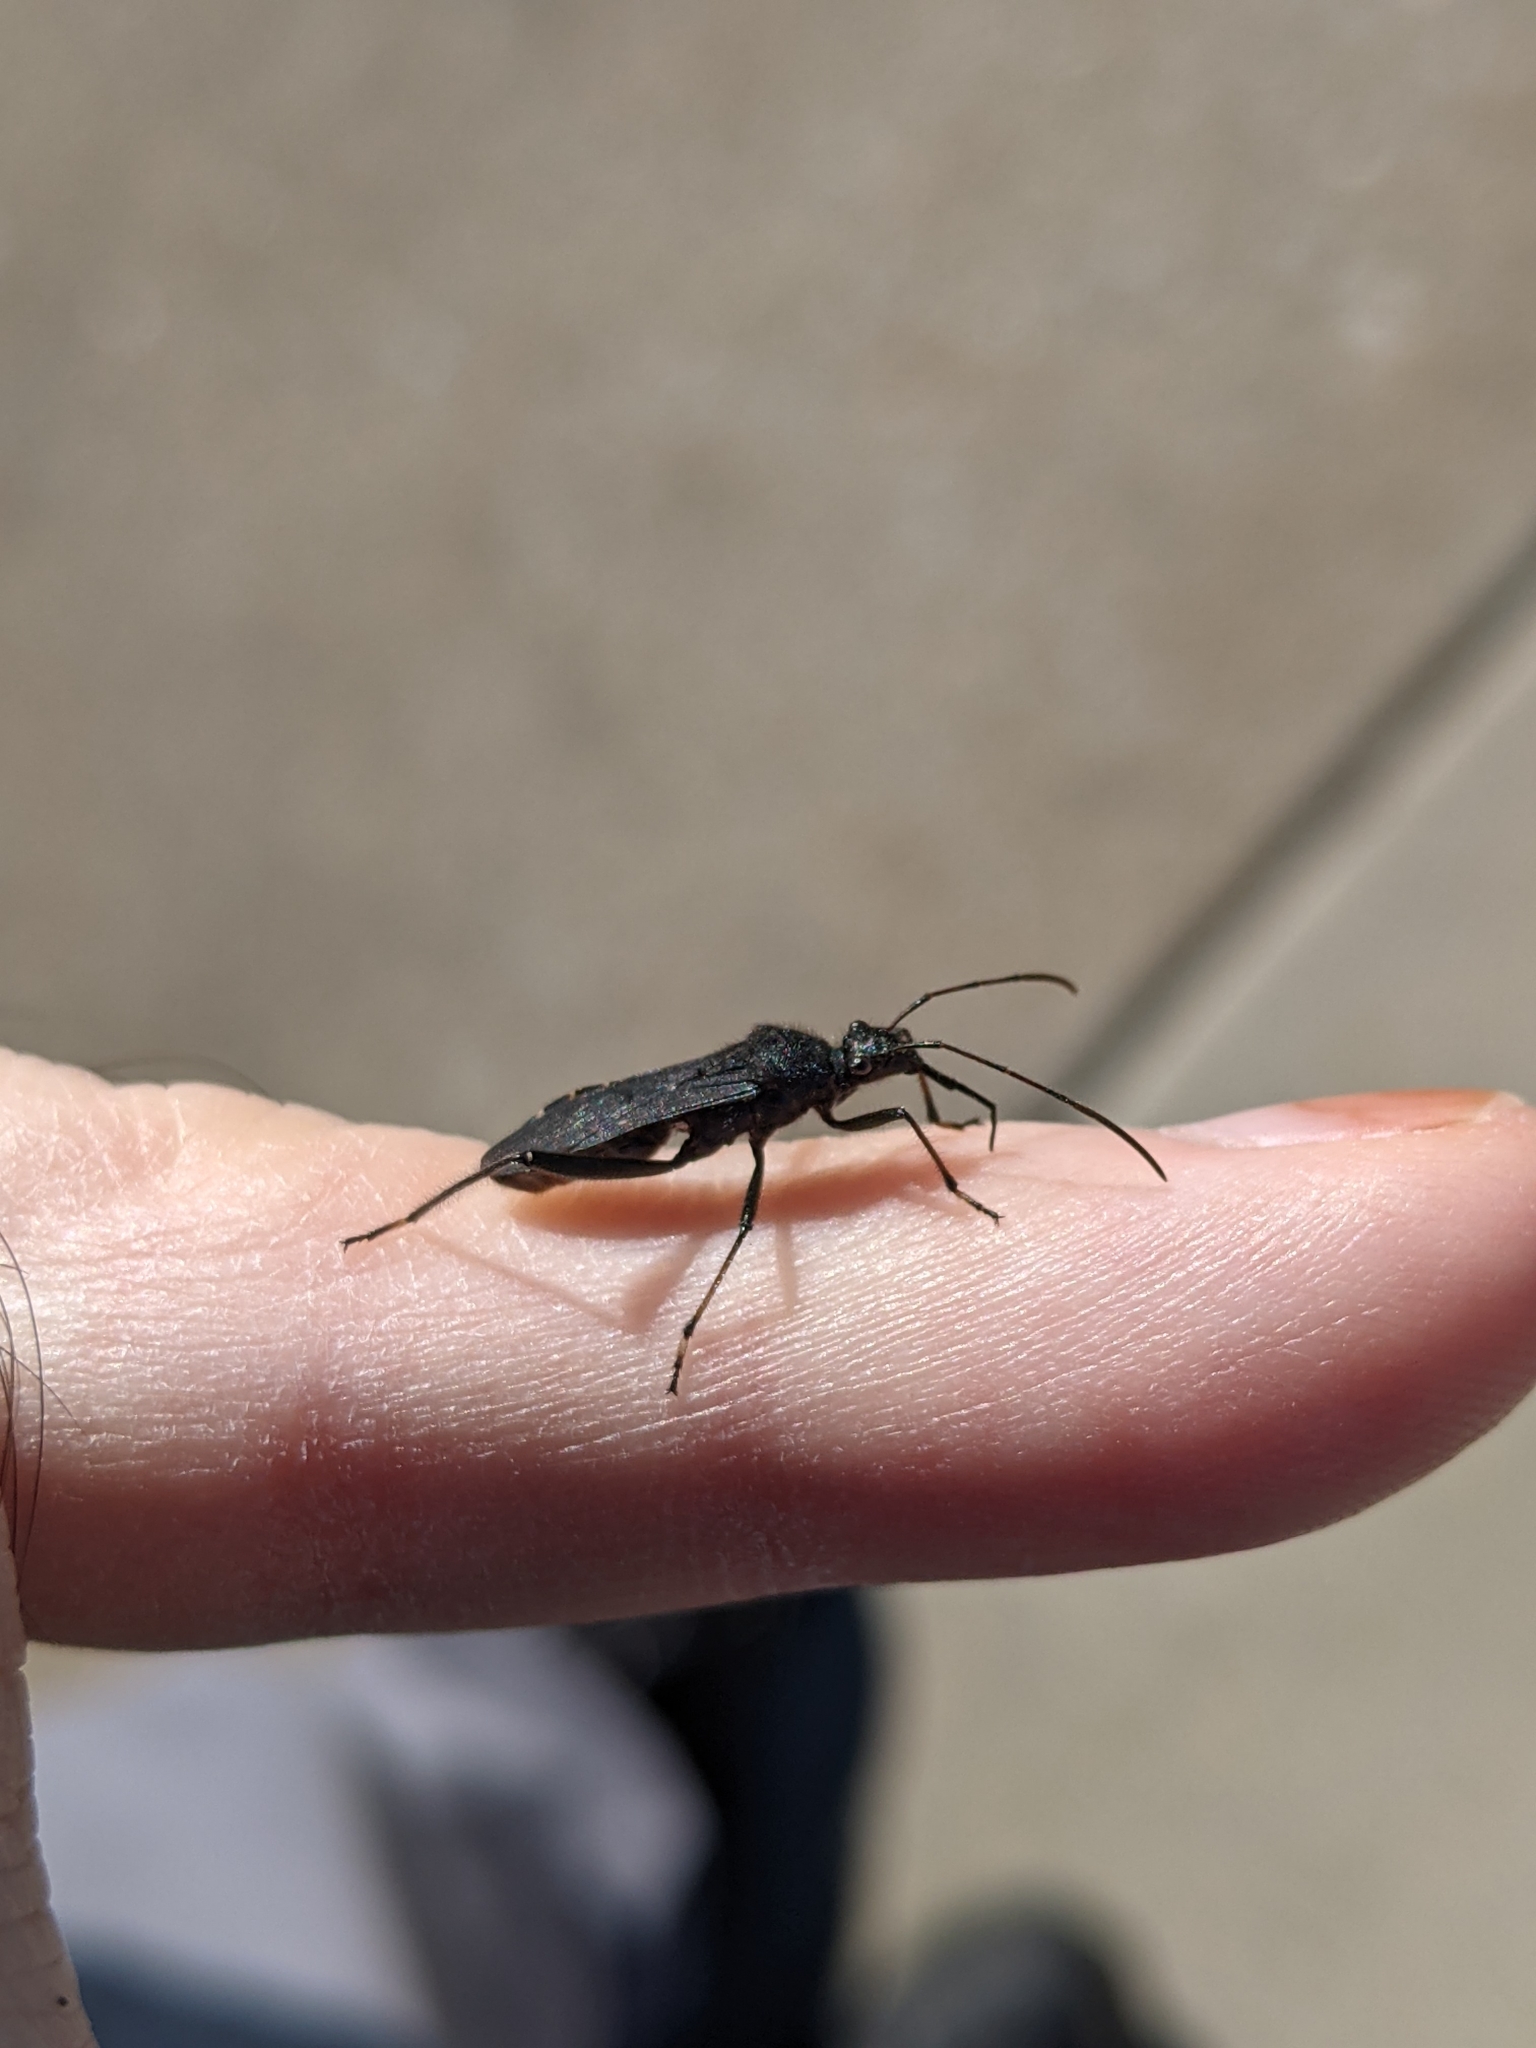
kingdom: Animalia
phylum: Arthropoda
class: Insecta
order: Hemiptera
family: Alydidae
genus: Alydus
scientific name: Alydus eurinus
